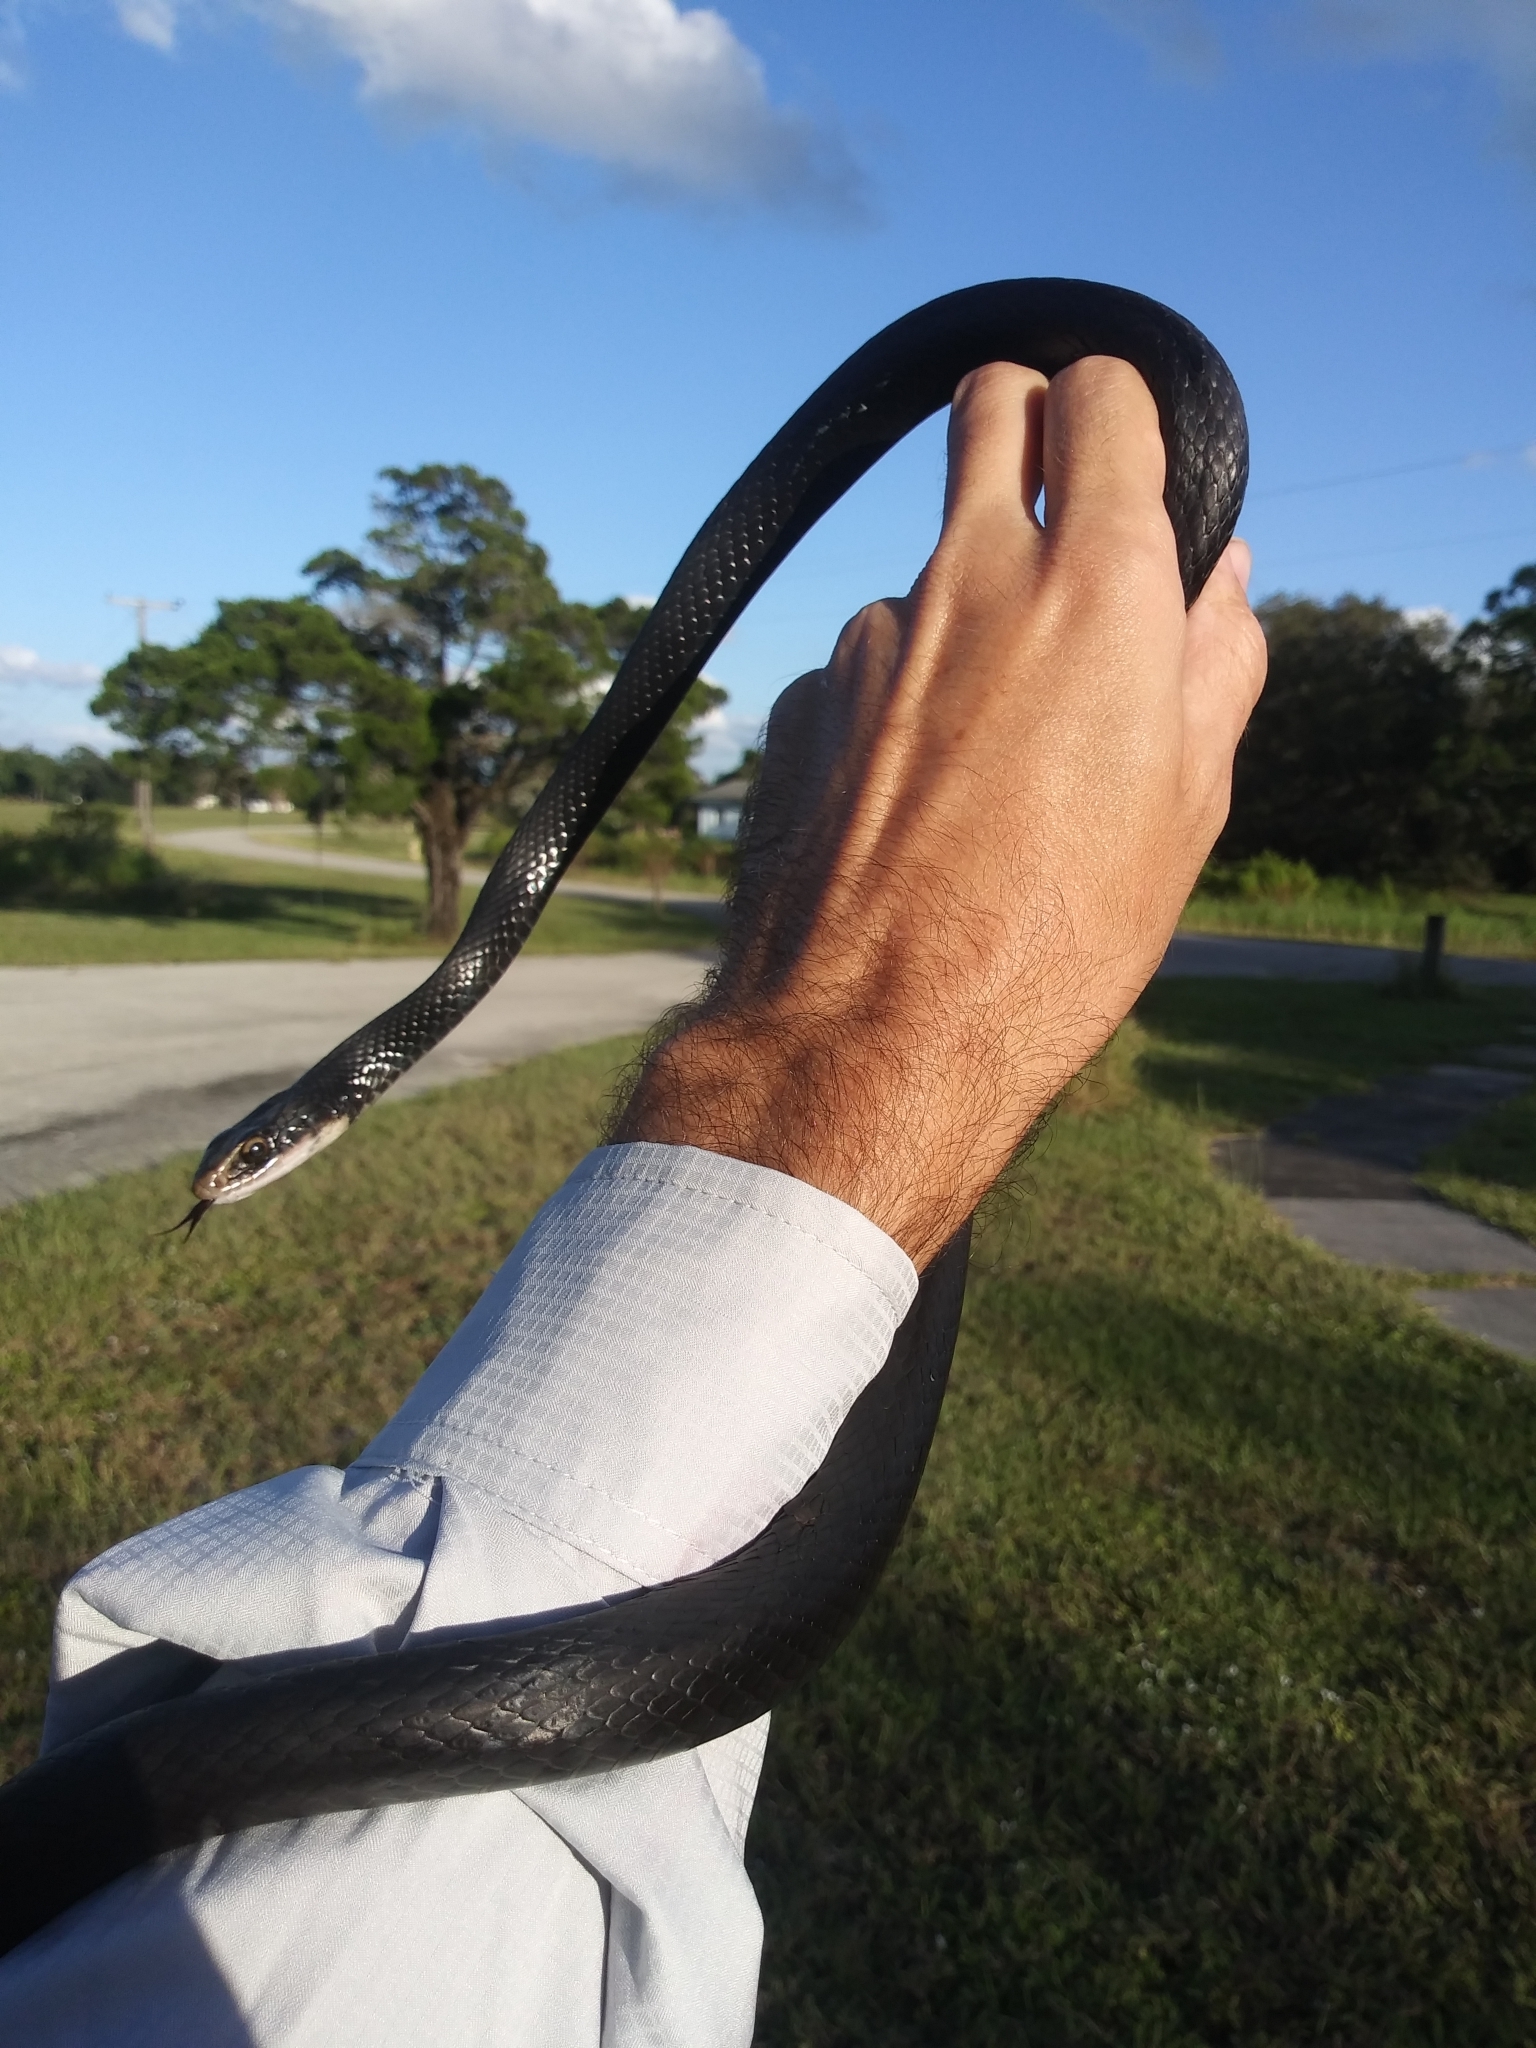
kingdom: Animalia
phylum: Chordata
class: Squamata
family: Colubridae
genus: Coluber
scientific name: Coluber constrictor
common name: Eastern racer
